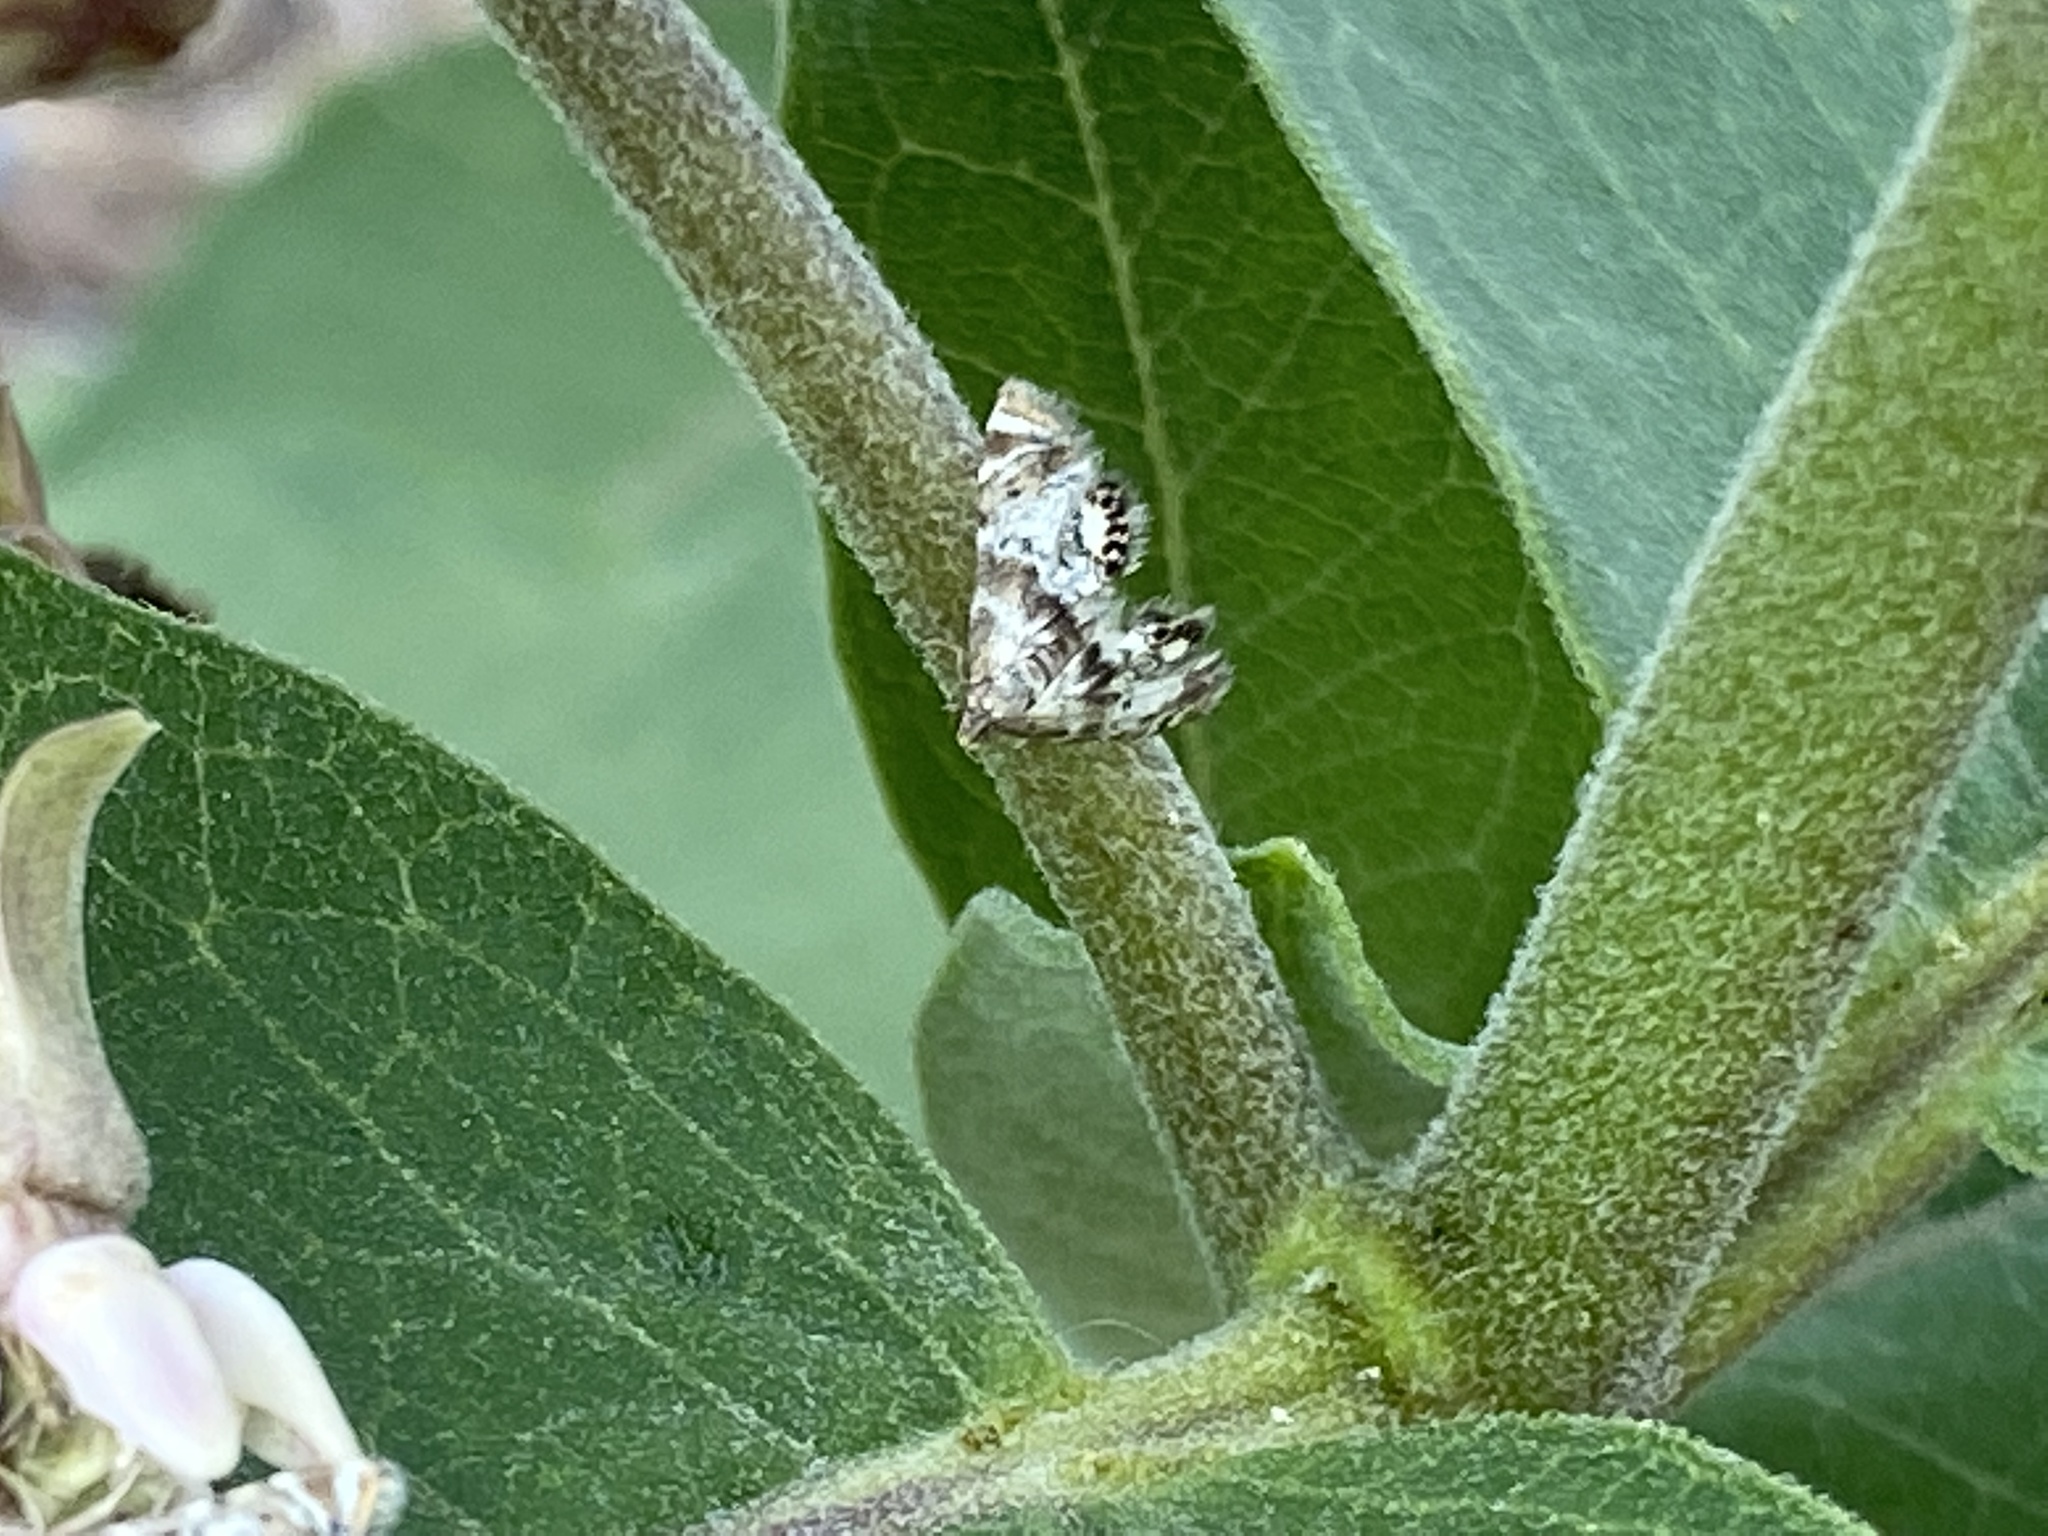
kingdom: Animalia
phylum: Arthropoda
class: Insecta
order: Lepidoptera
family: Crambidae
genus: Petrophila
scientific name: Petrophila fulicalis
